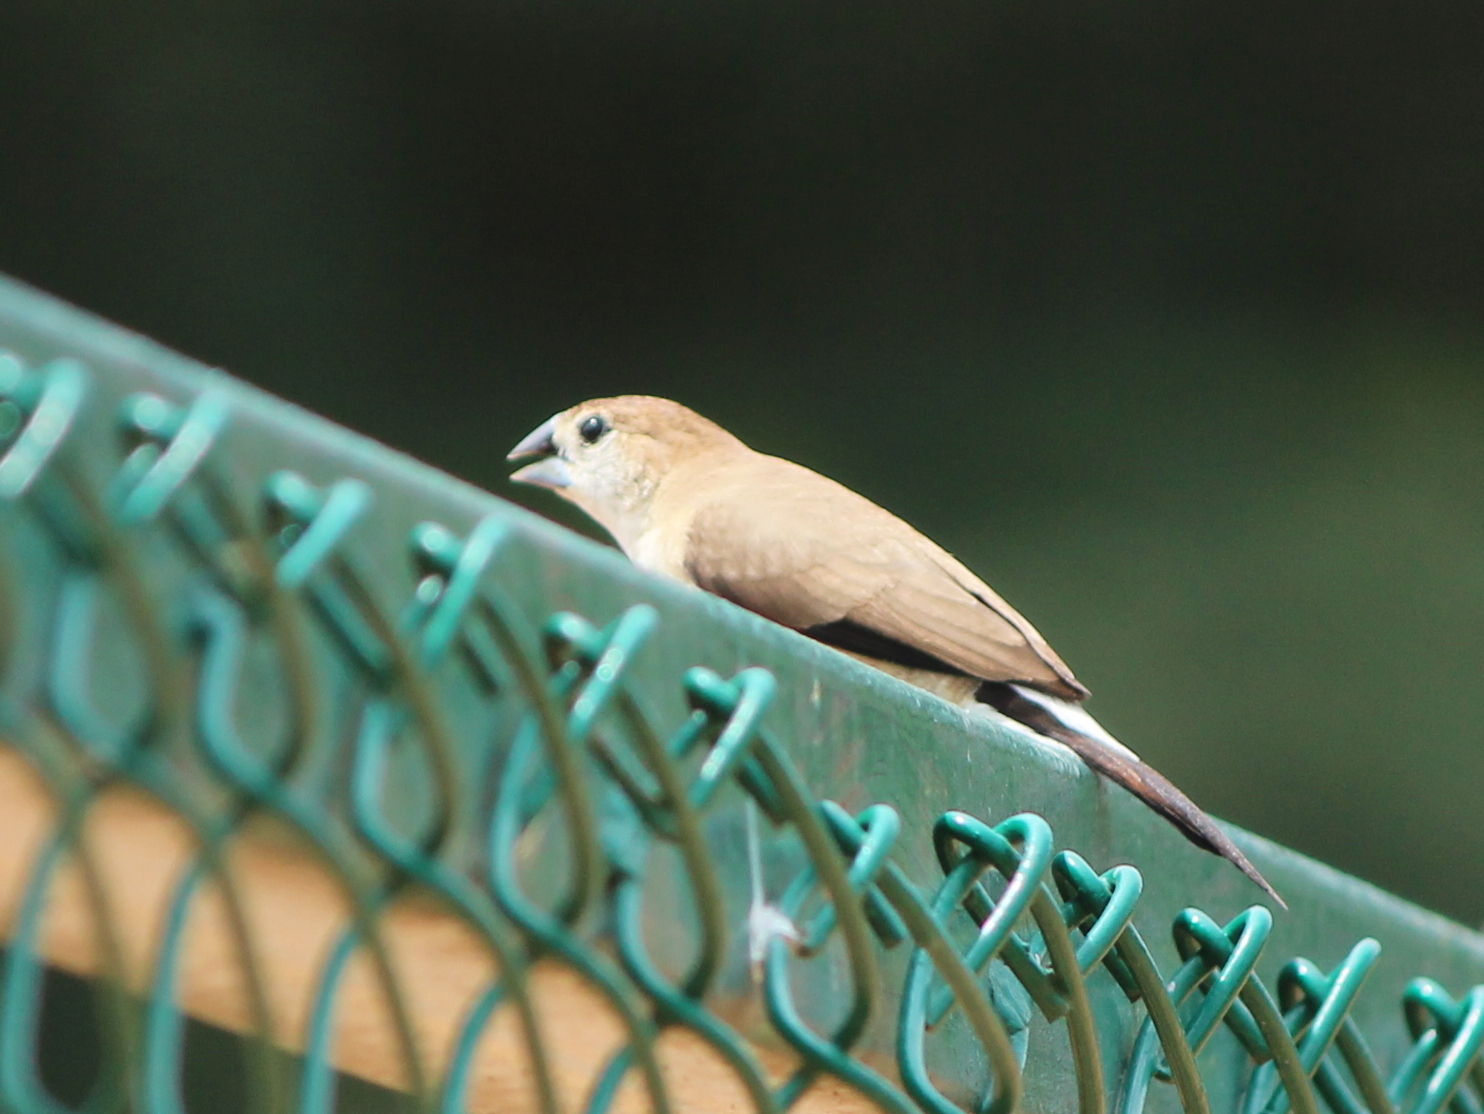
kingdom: Animalia
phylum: Chordata
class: Aves
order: Passeriformes
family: Estrildidae
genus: Euodice
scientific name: Euodice malabarica
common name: Indian silverbill
